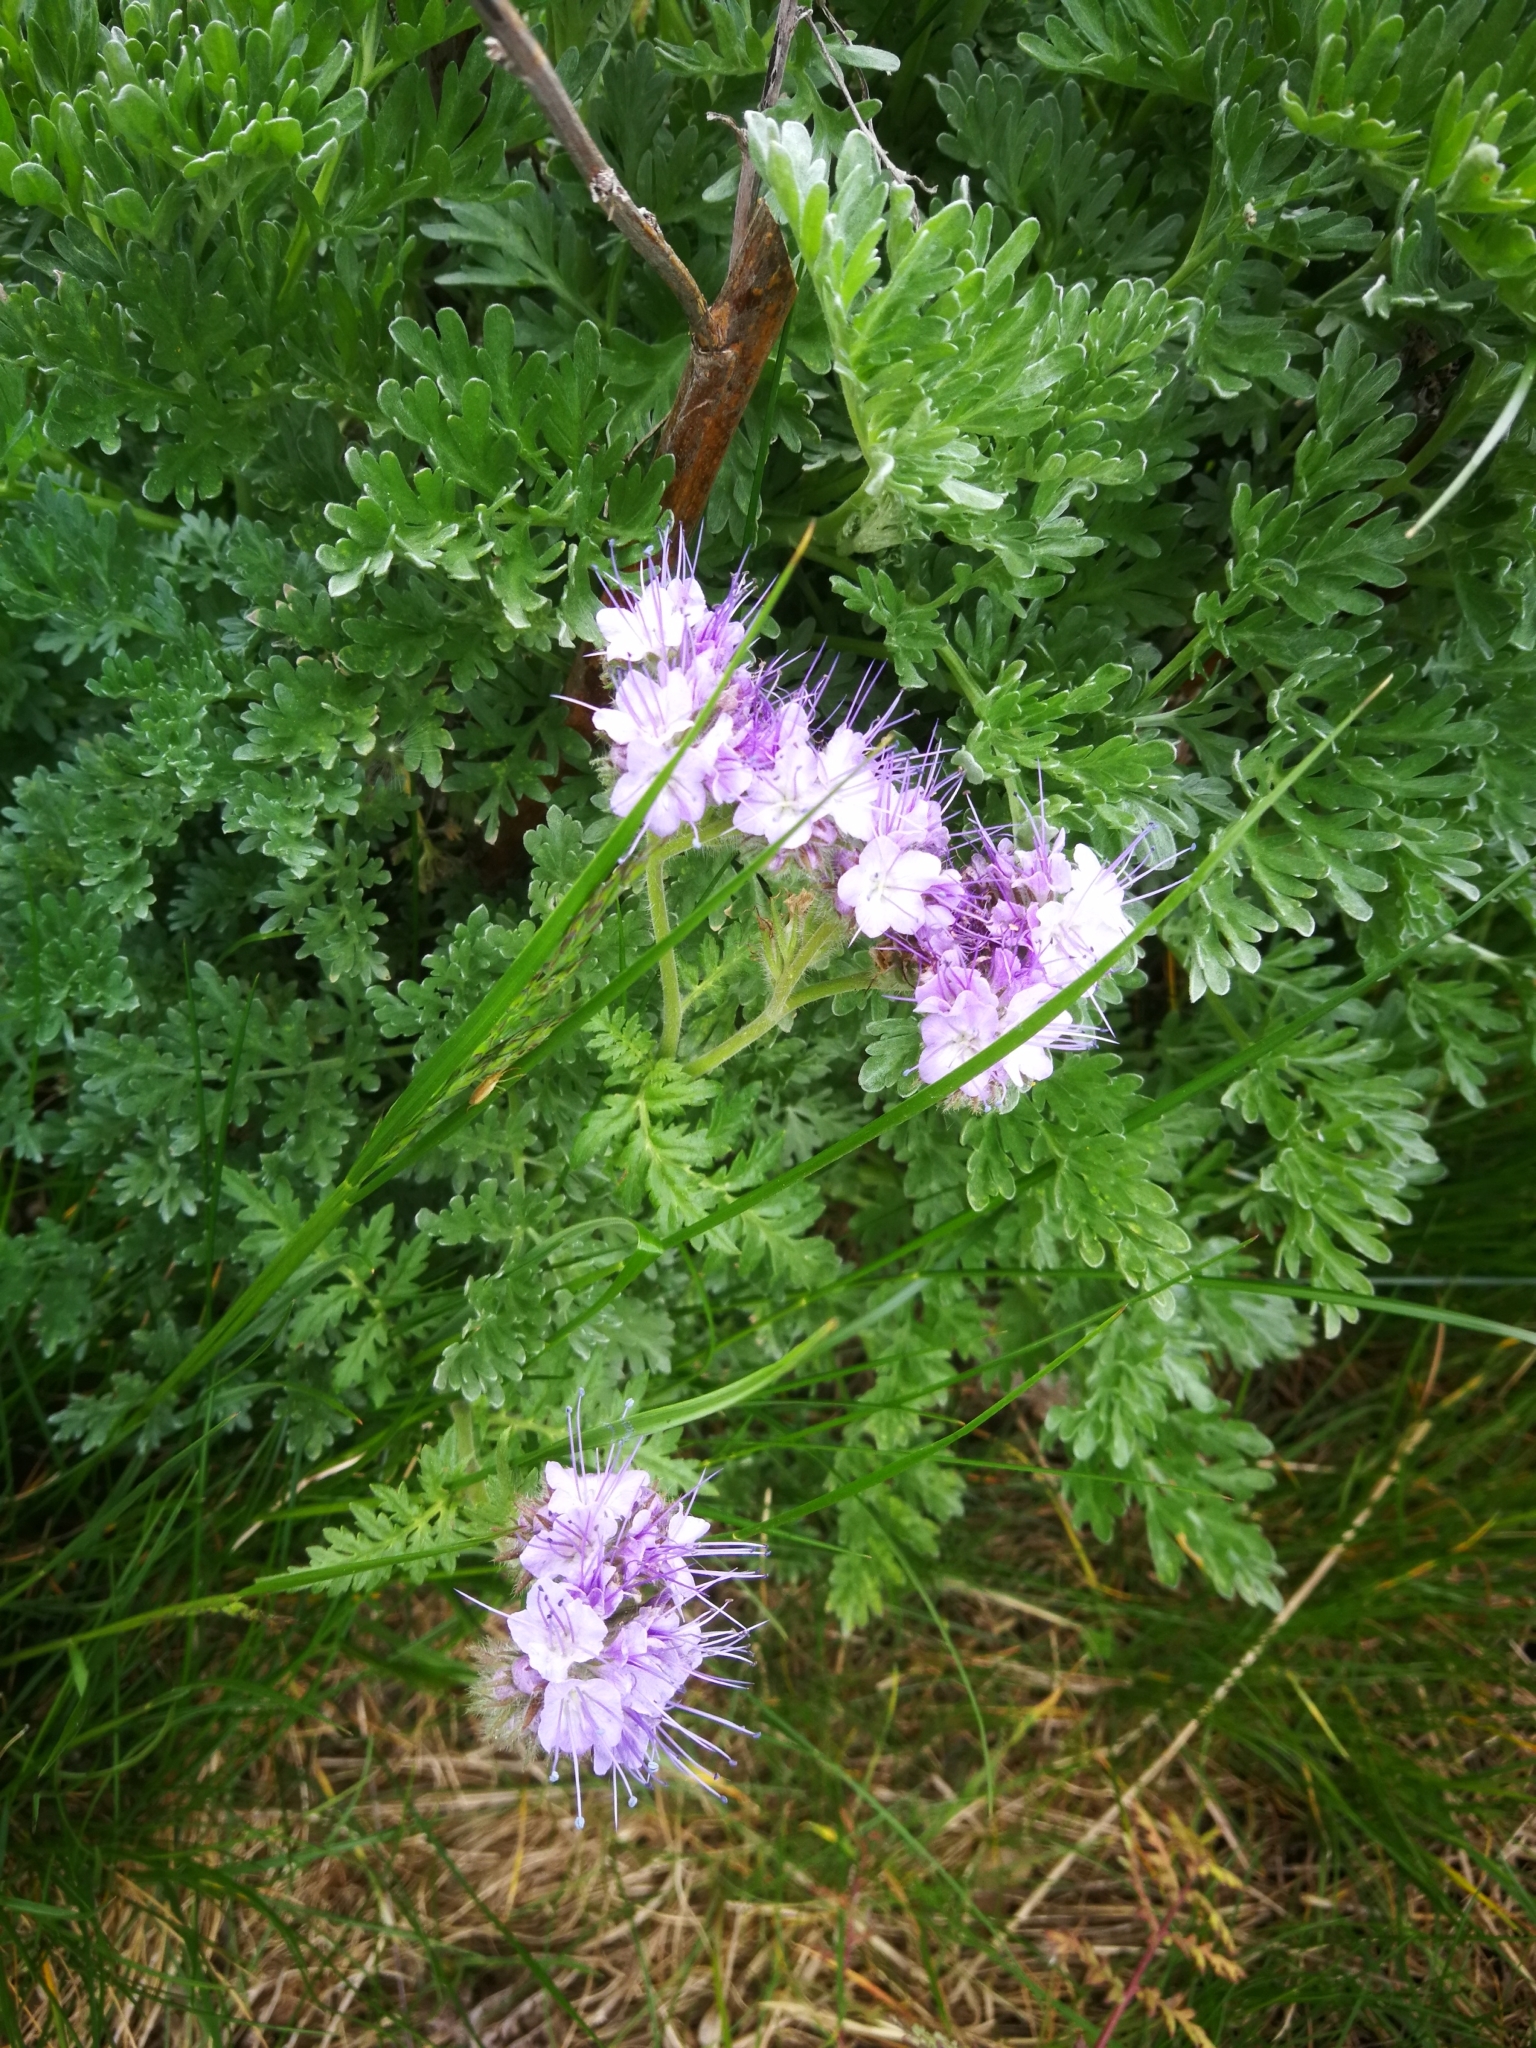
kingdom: Plantae
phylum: Tracheophyta
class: Magnoliopsida
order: Boraginales
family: Hydrophyllaceae
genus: Phacelia
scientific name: Phacelia tanacetifolia
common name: Phacelia
